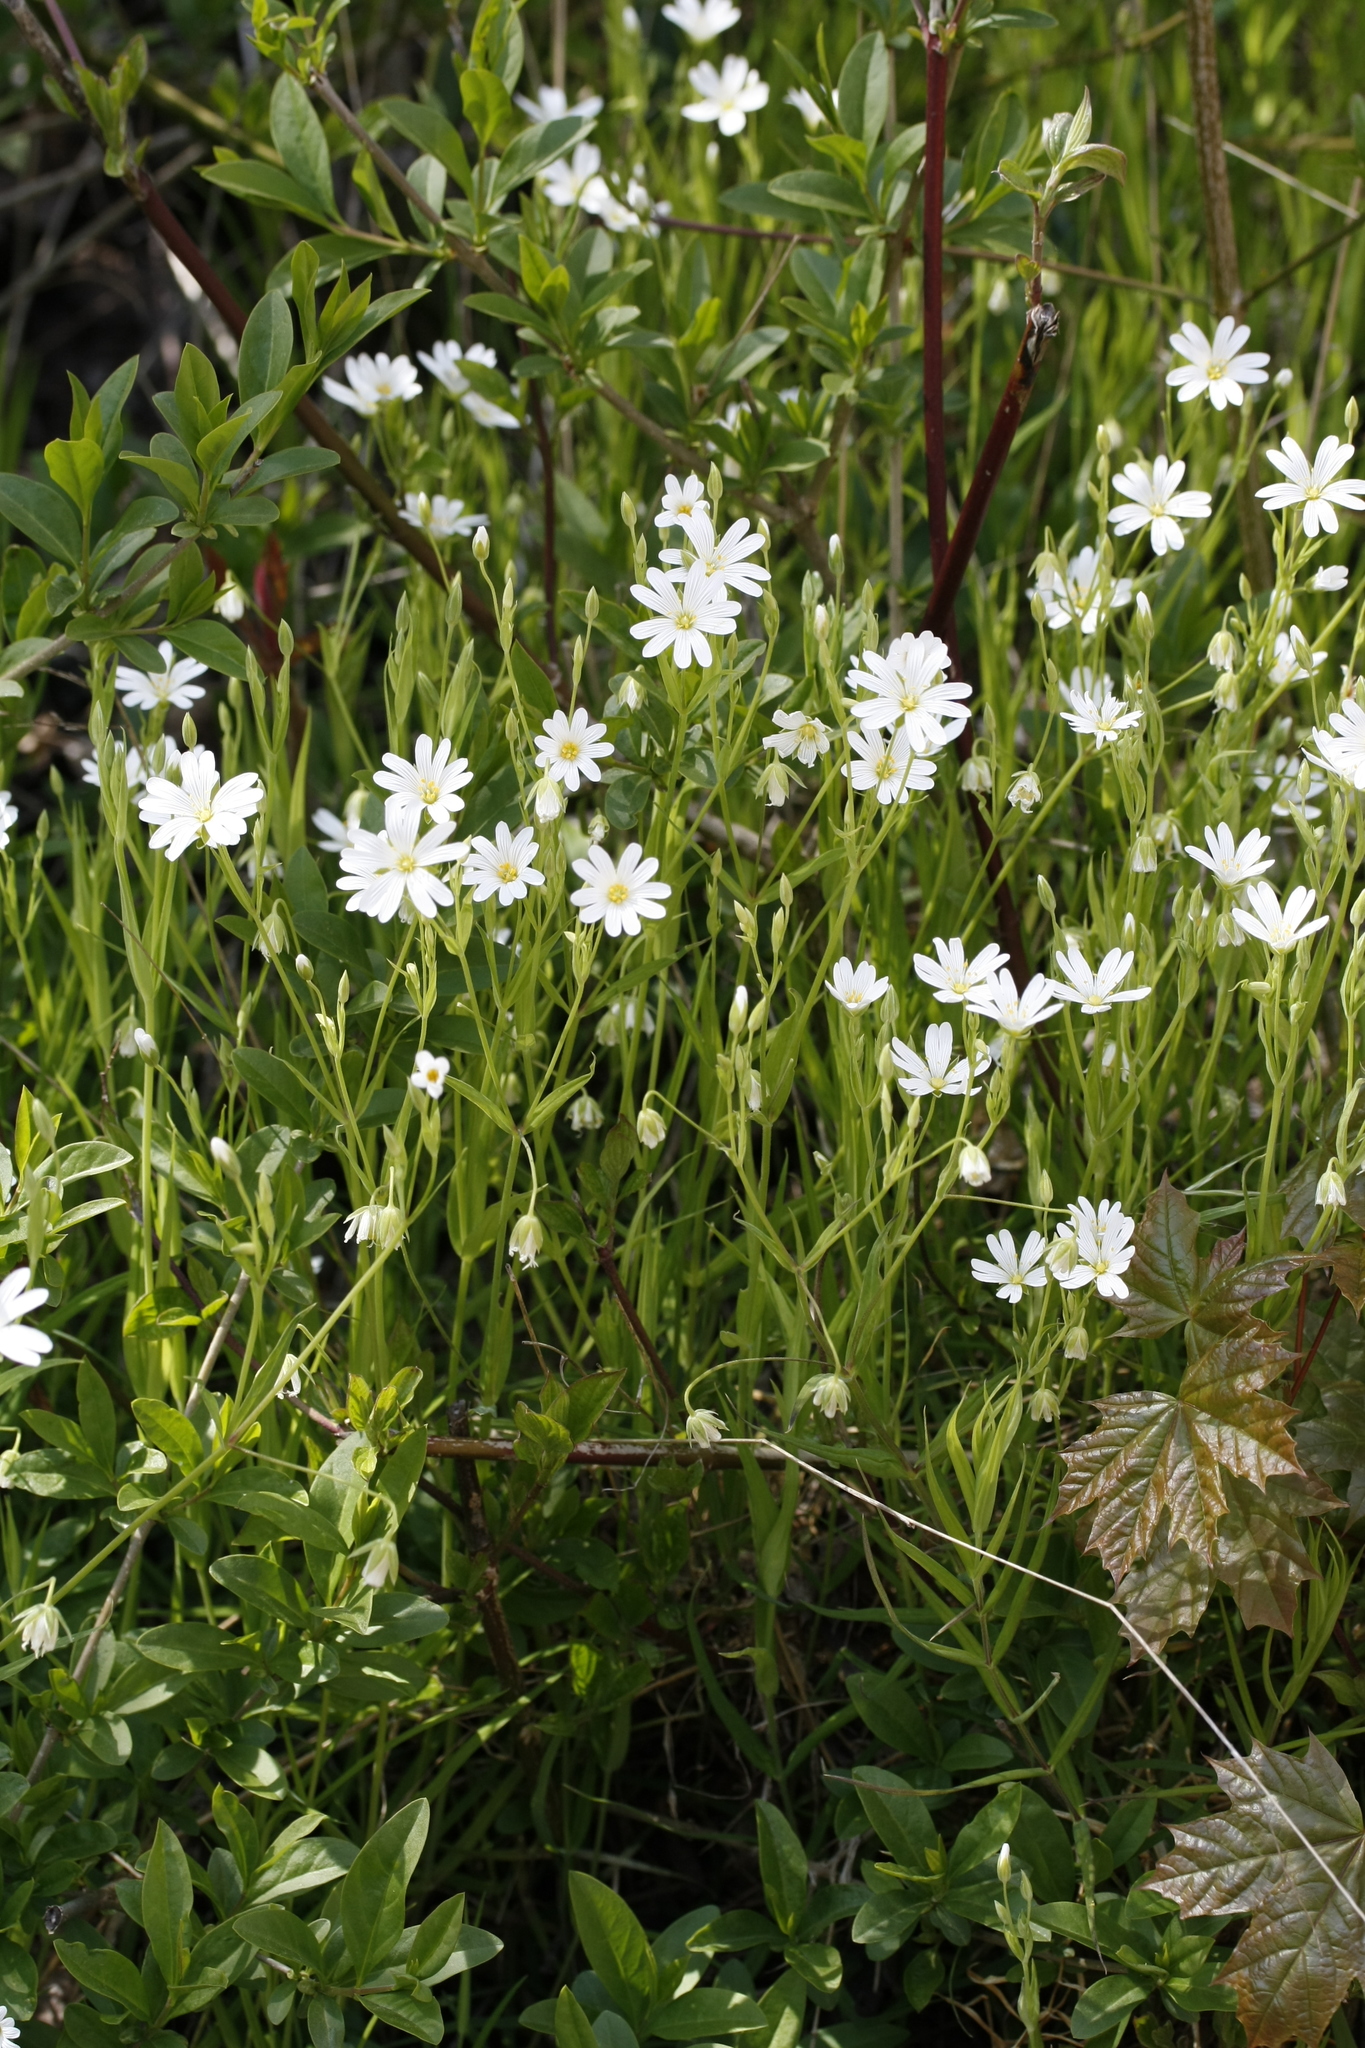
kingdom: Plantae
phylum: Tracheophyta
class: Magnoliopsida
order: Caryophyllales
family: Caryophyllaceae
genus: Rabelera
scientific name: Rabelera holostea
